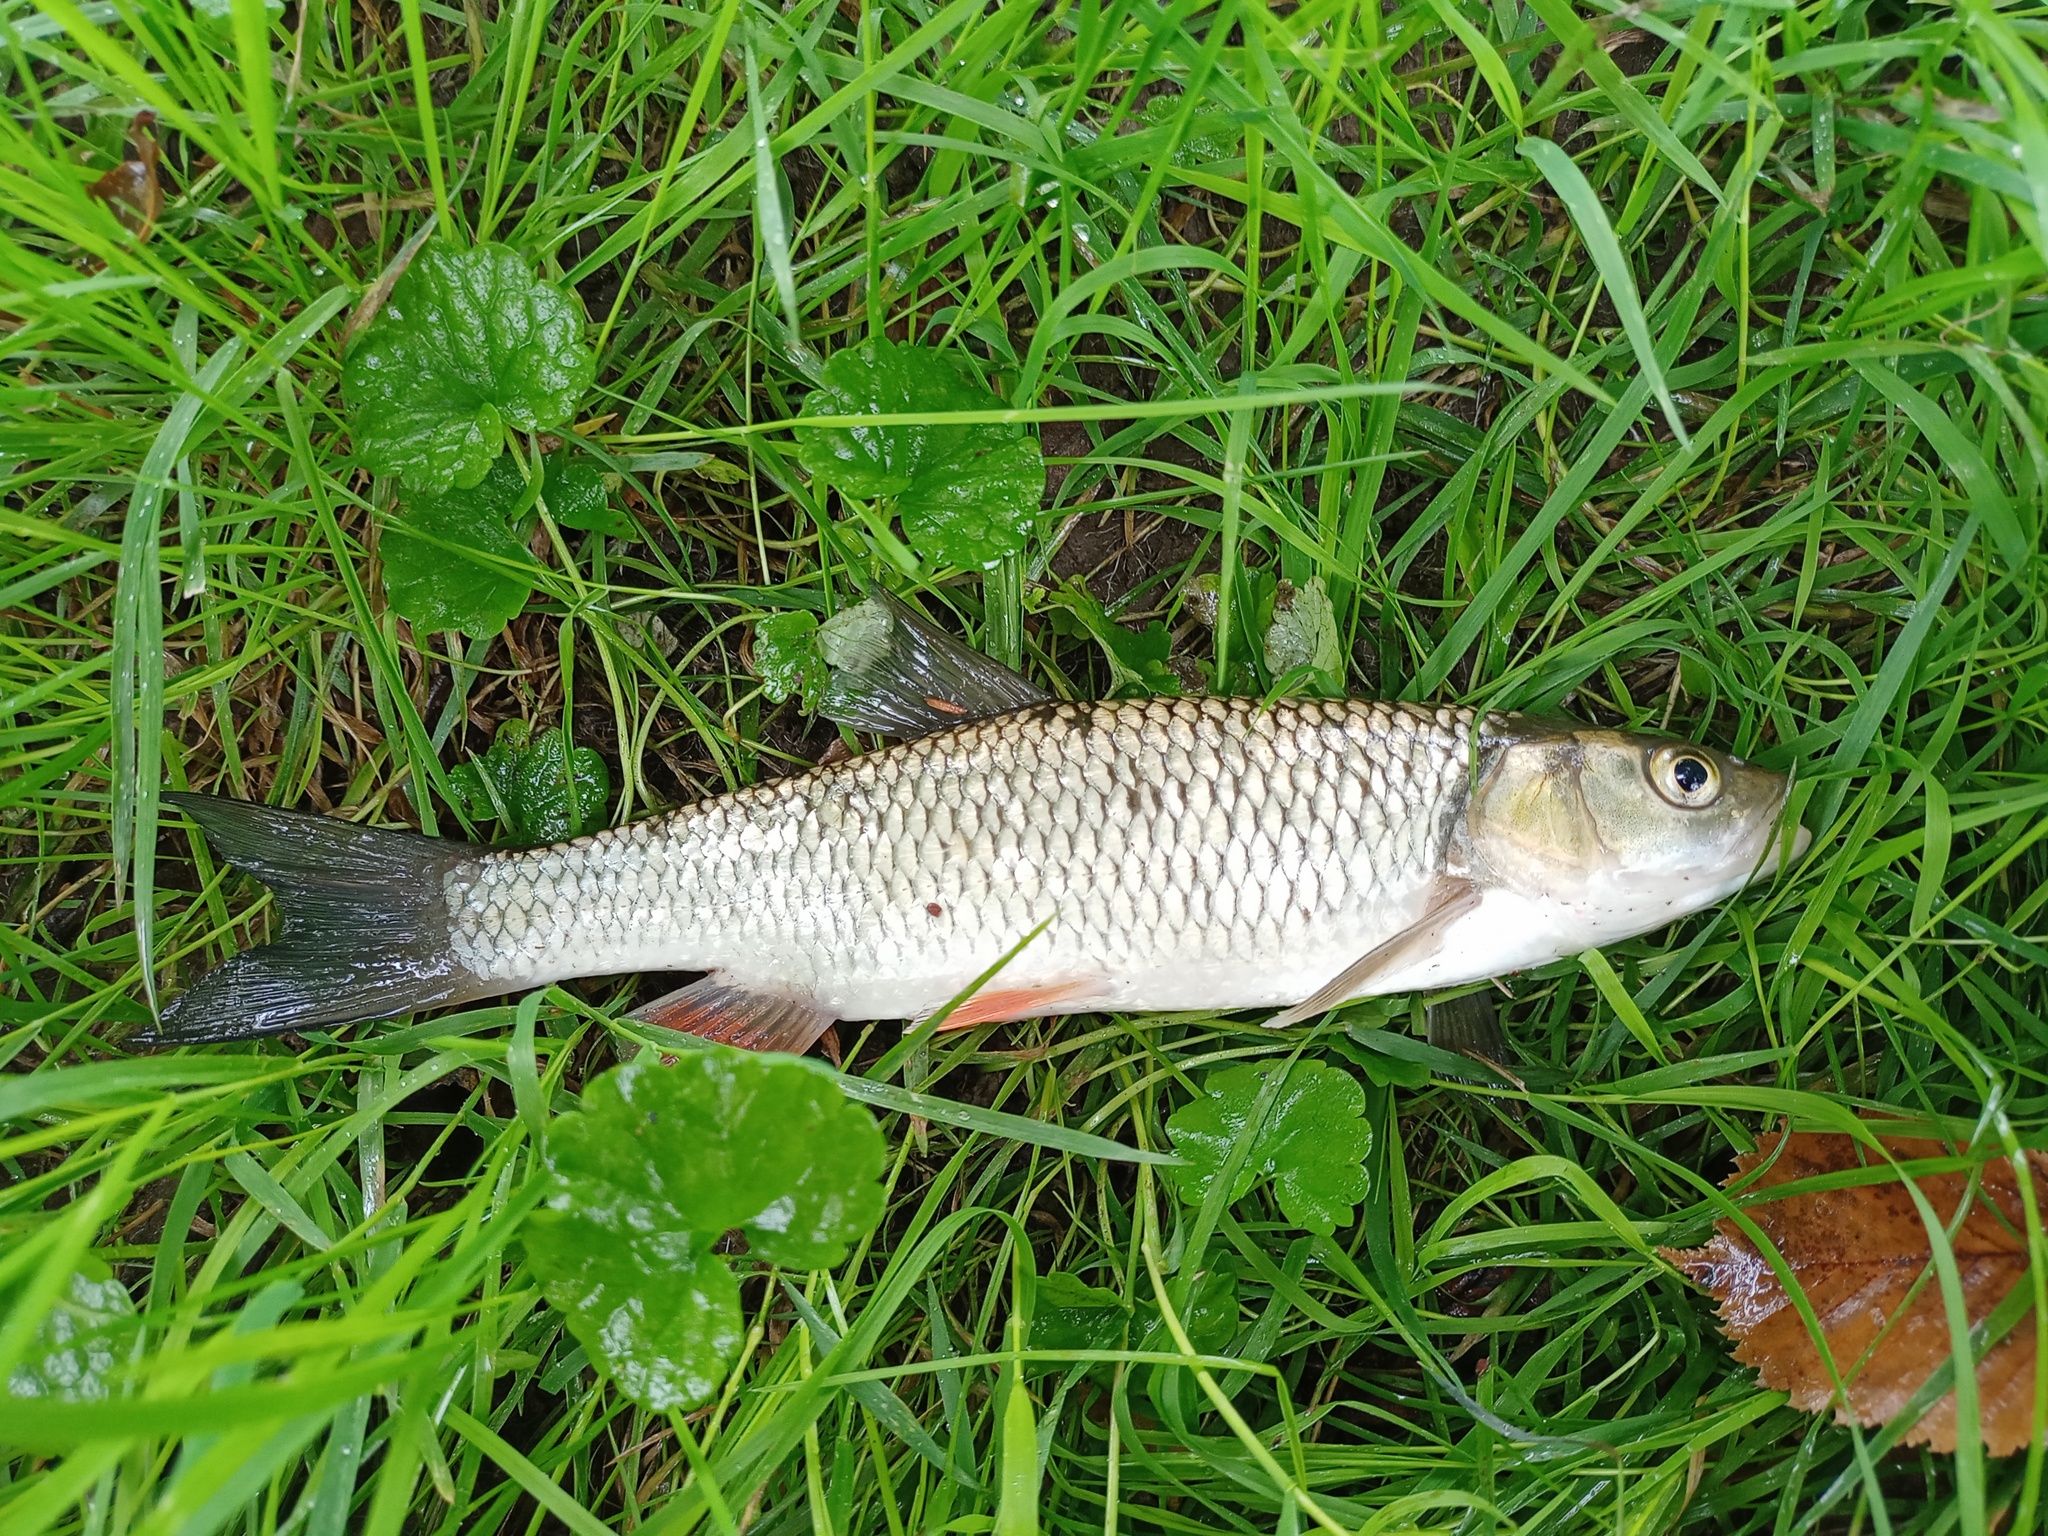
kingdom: Animalia
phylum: Chordata
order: Cypriniformes
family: Cyprinidae
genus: Squalius
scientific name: Squalius cephalus
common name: Chub
